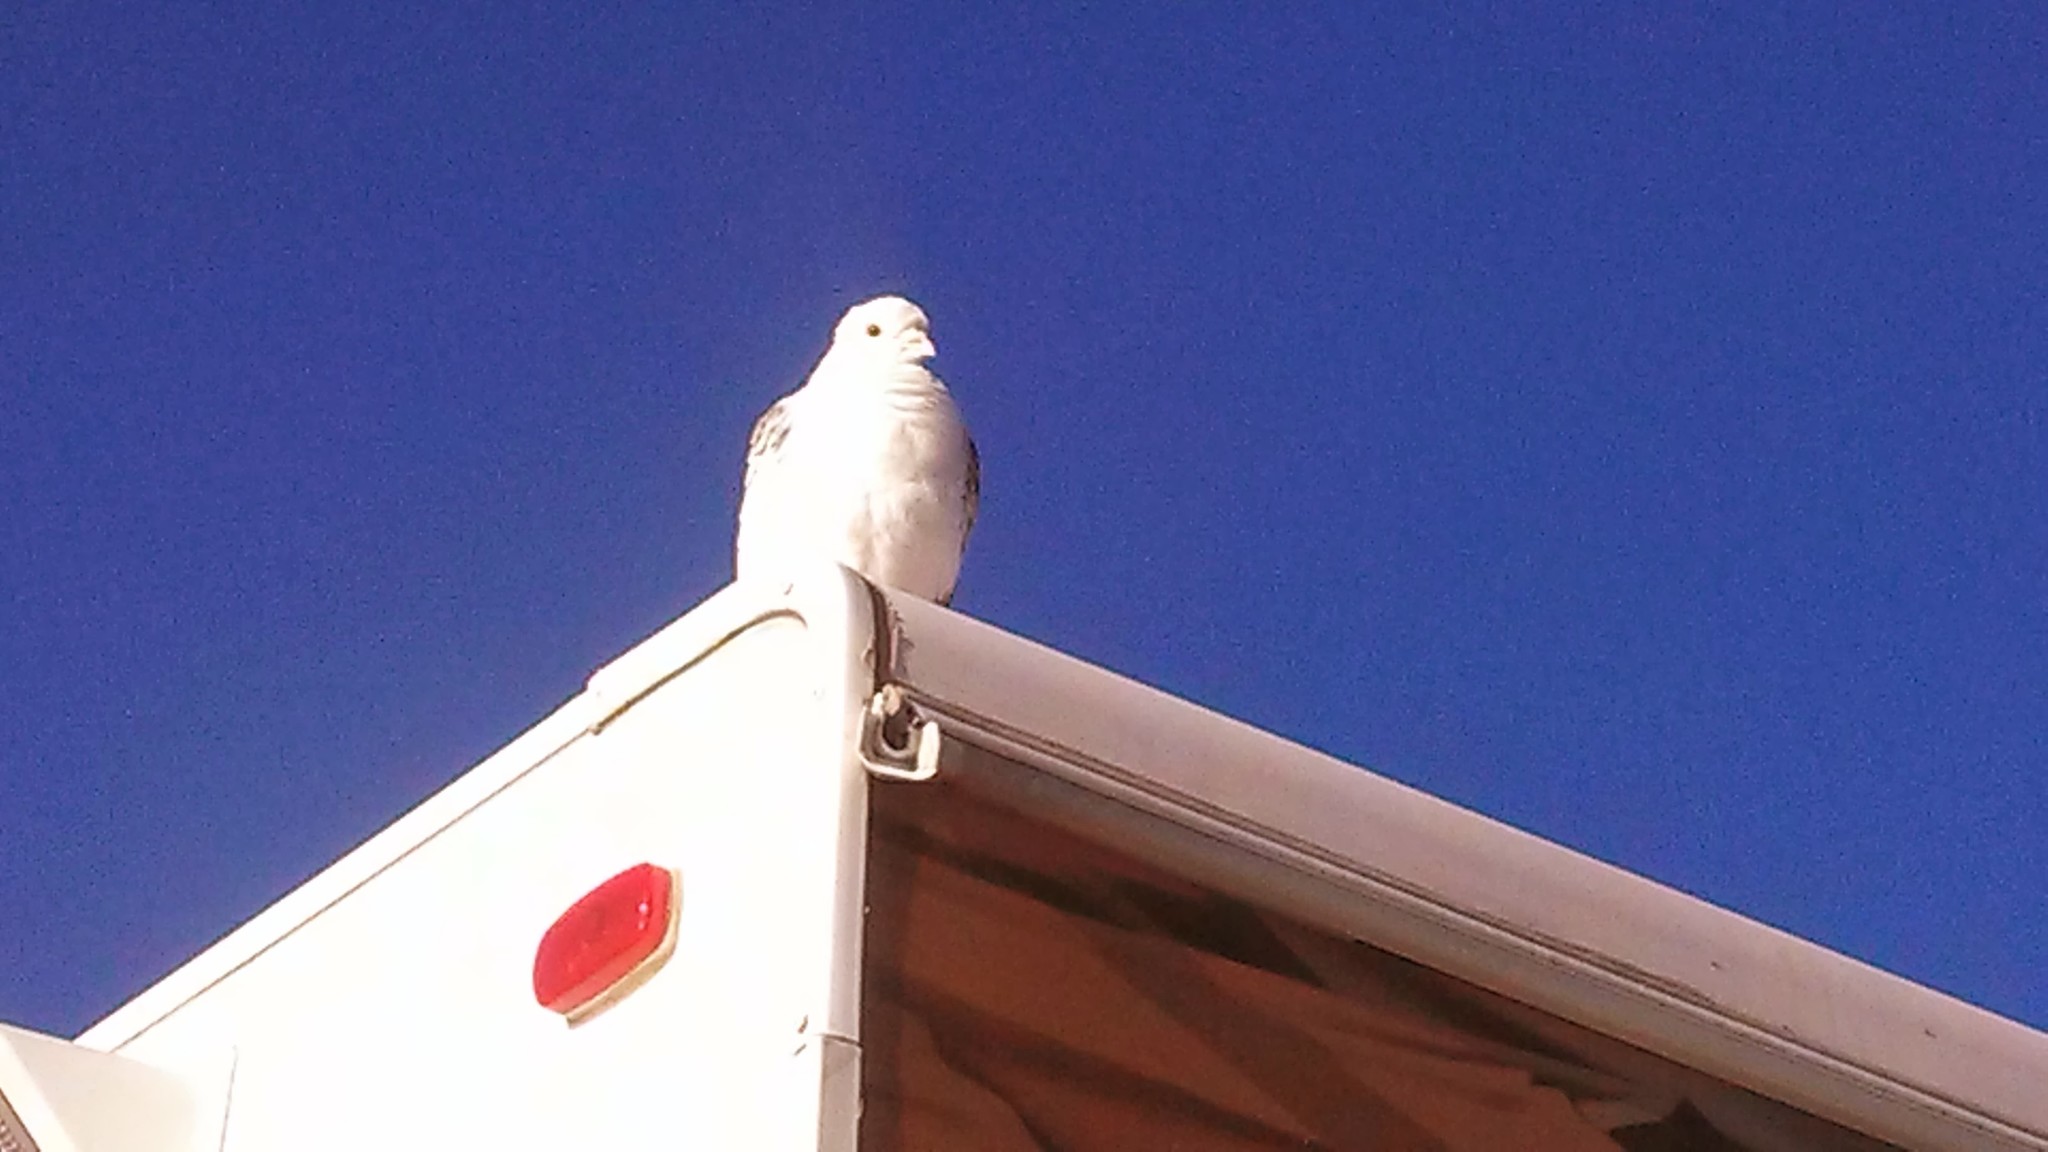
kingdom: Animalia
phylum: Chordata
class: Aves
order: Columbiformes
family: Columbidae
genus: Zenaida
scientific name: Zenaida macroura
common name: Mourning dove
